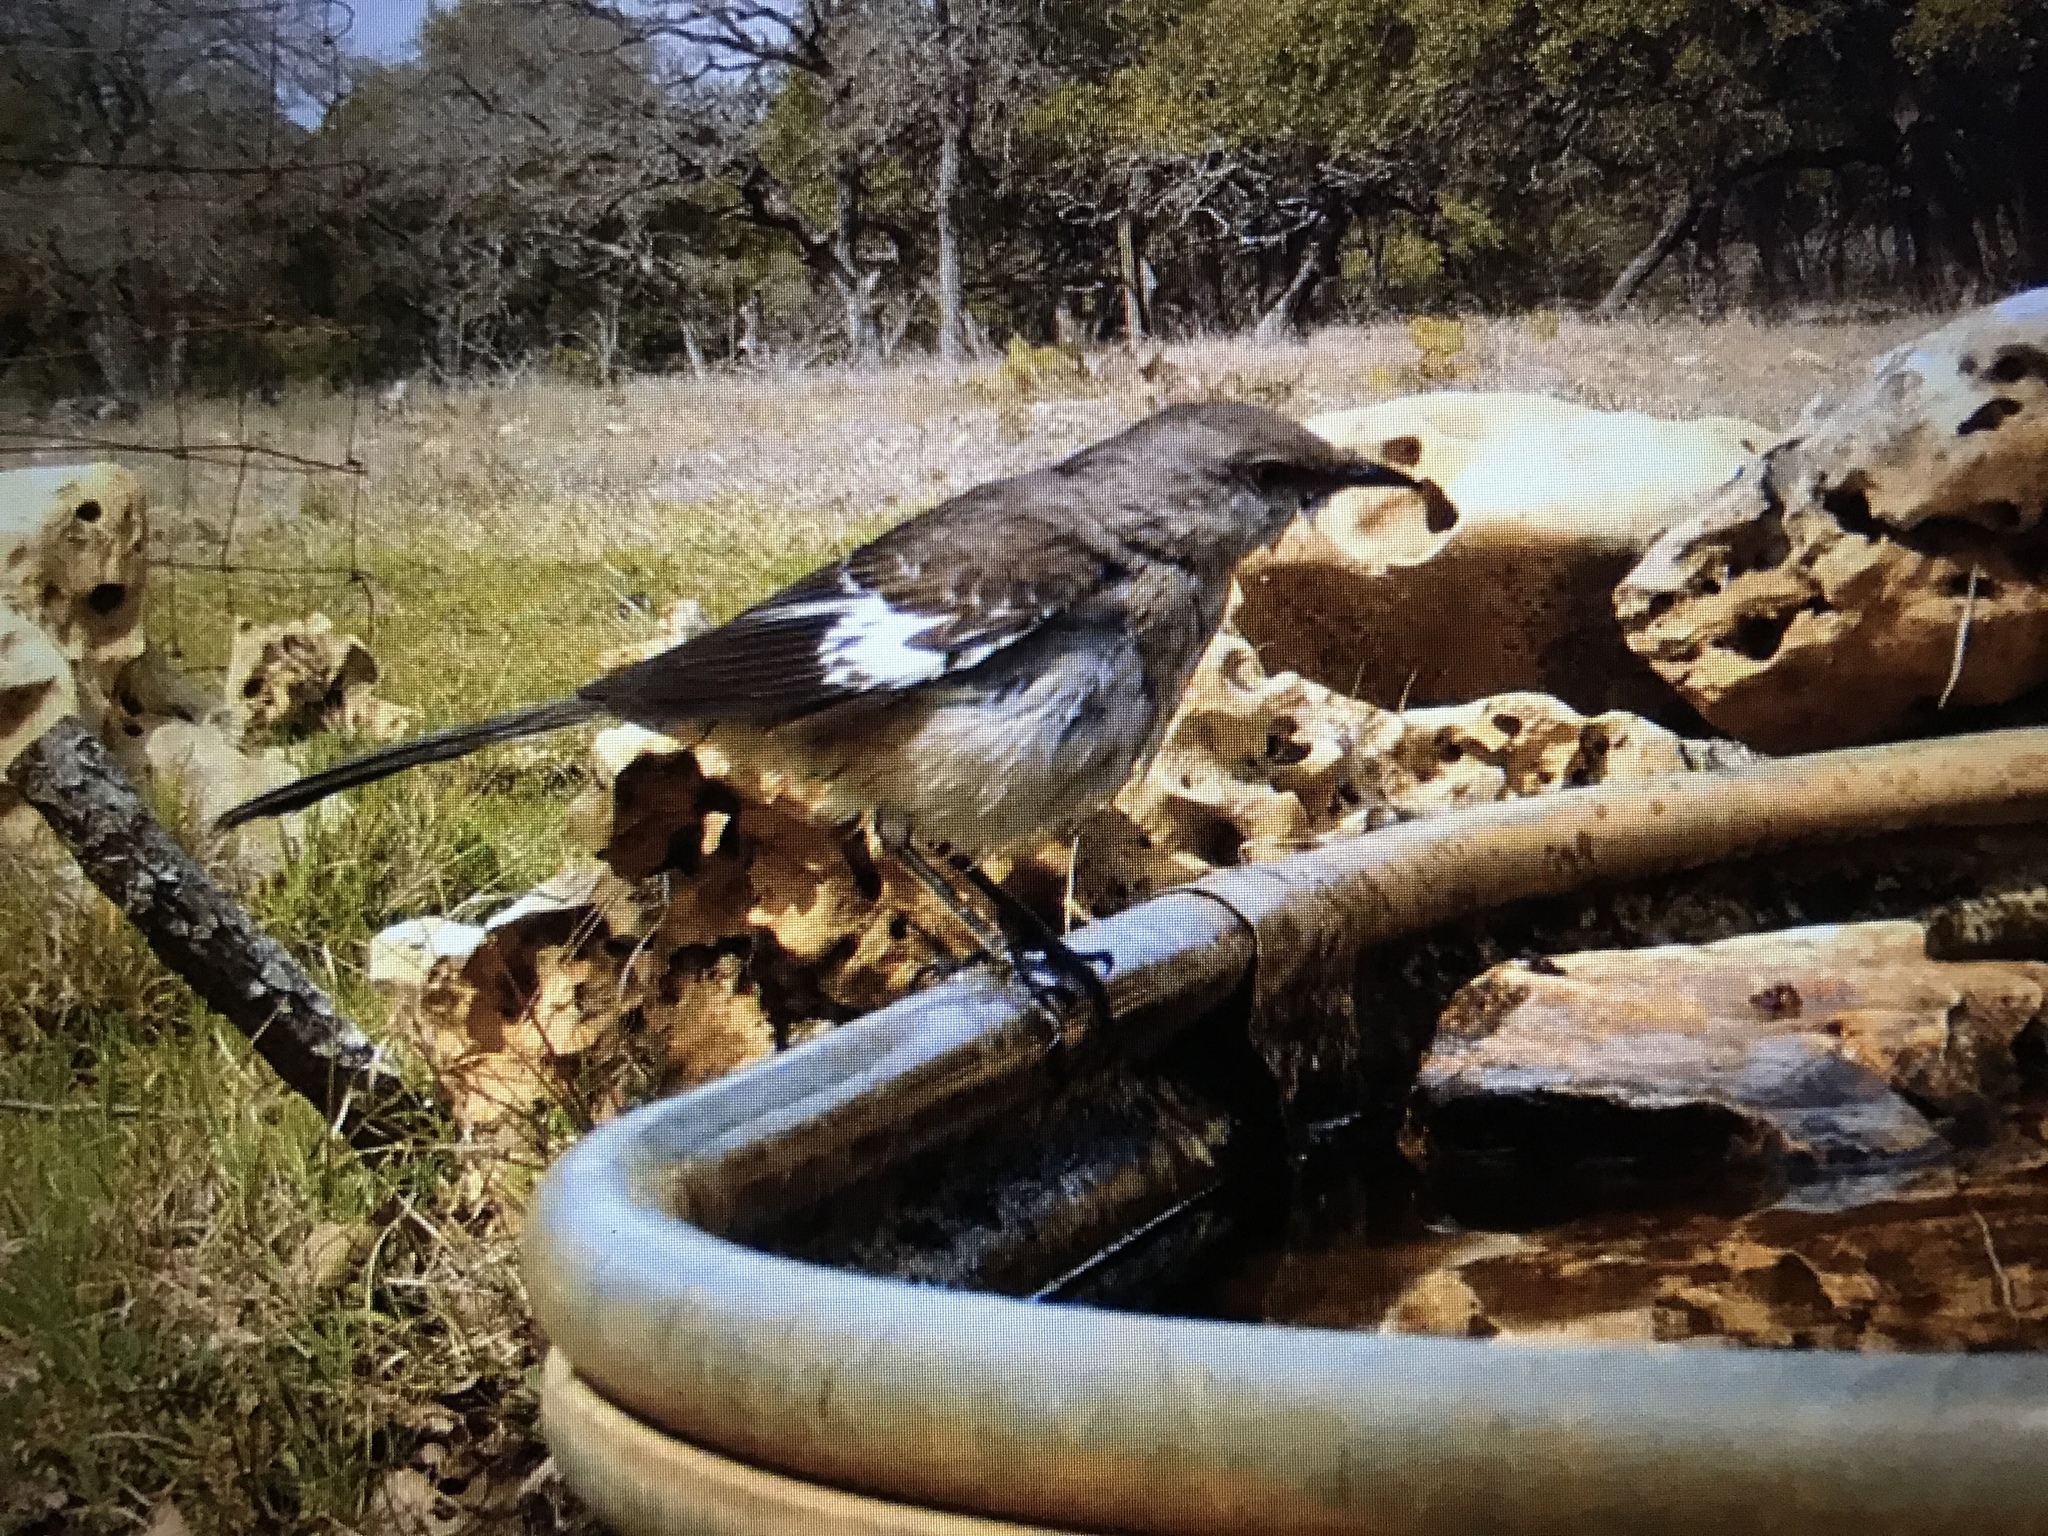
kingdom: Animalia
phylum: Chordata
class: Aves
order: Passeriformes
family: Mimidae
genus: Mimus
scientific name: Mimus polyglottos
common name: Northern mockingbird
